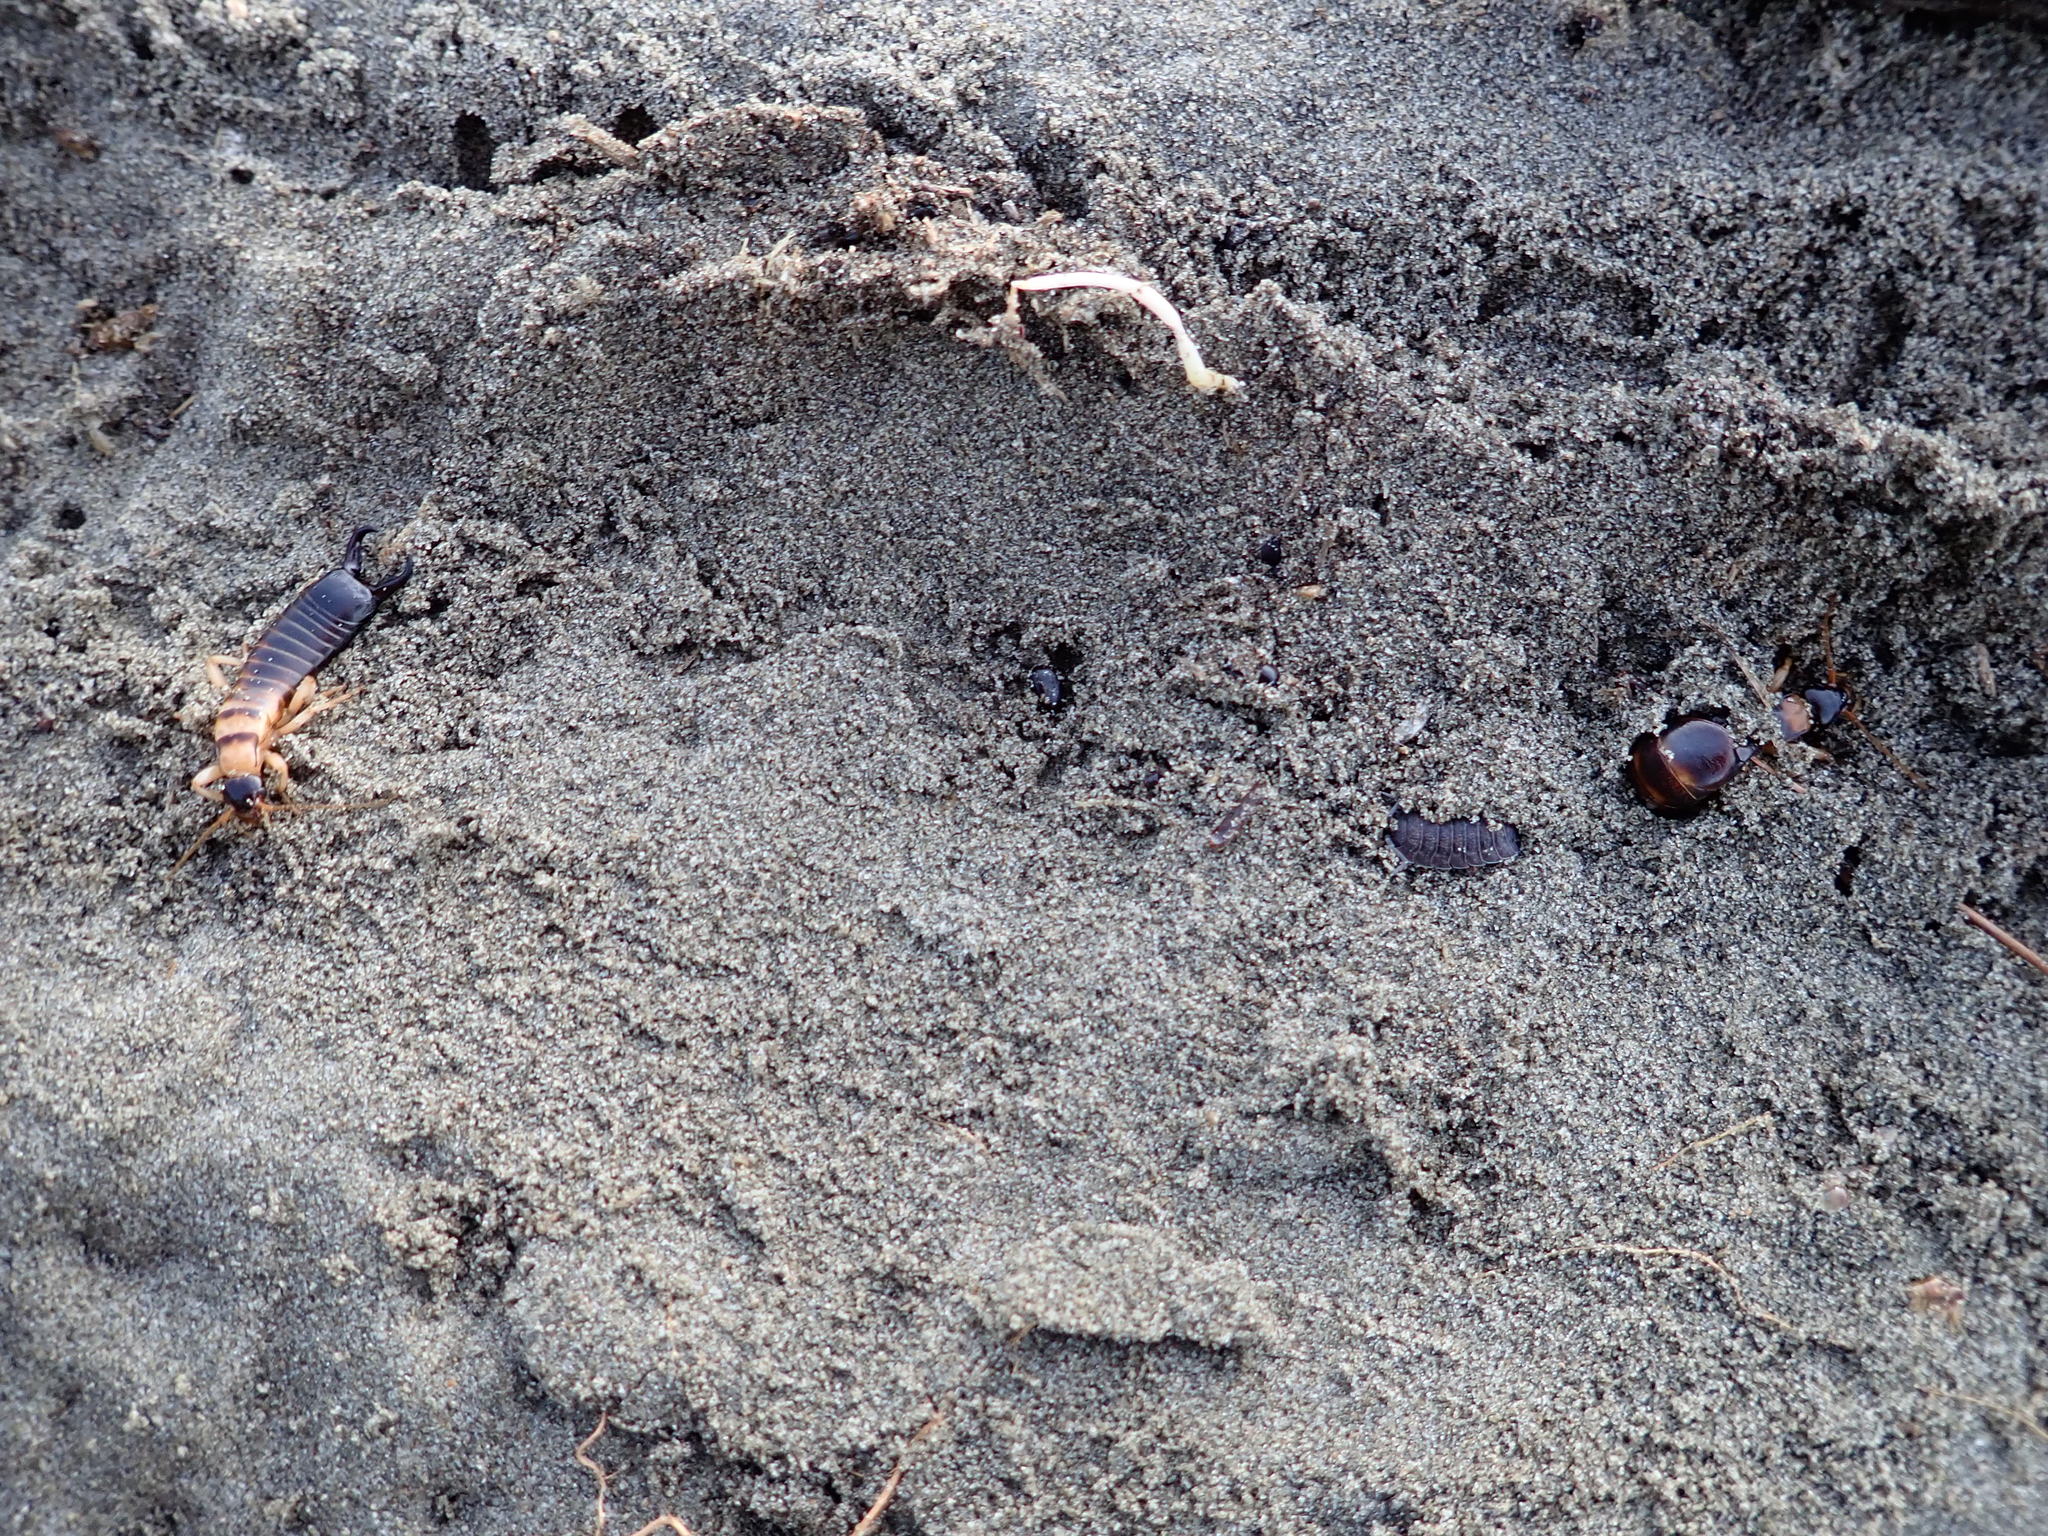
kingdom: Animalia
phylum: Arthropoda
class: Insecta
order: Dermaptera
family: Anisolabididae
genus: Anisolabis
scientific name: Anisolabis littorea
